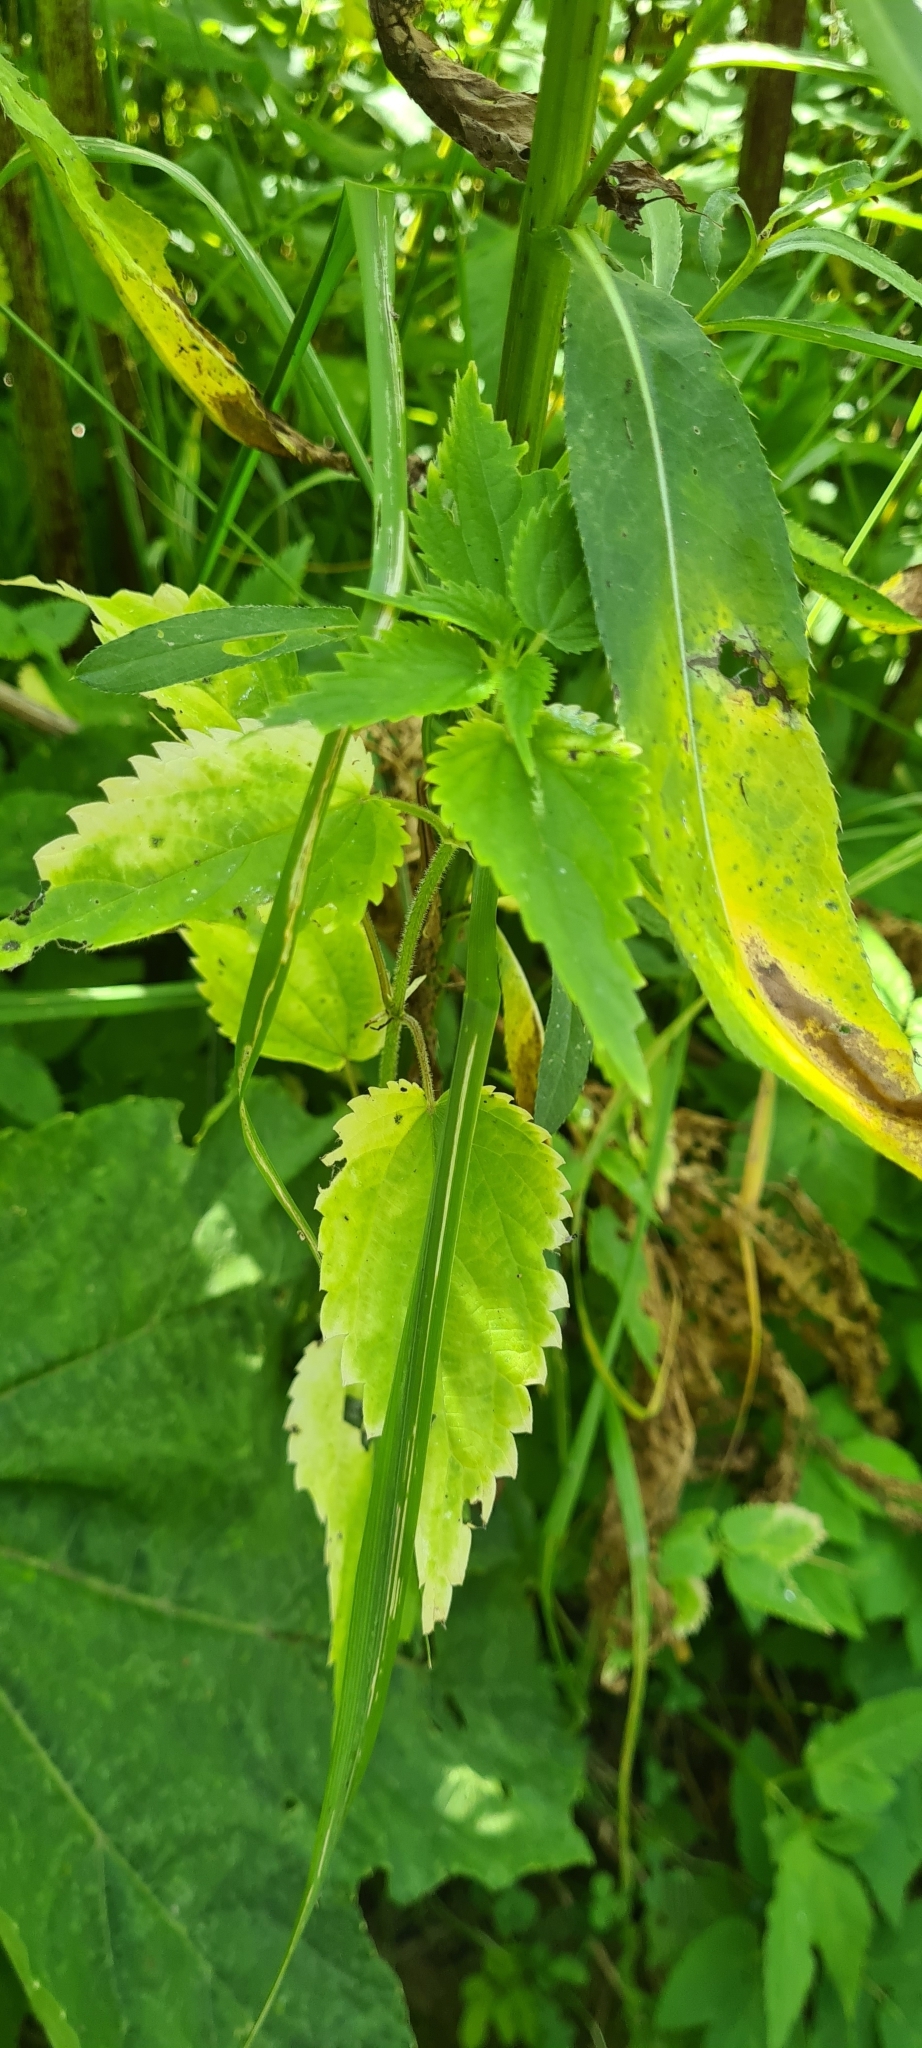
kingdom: Plantae
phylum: Tracheophyta
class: Magnoliopsida
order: Rosales
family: Urticaceae
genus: Urtica
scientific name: Urtica dioica
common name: Common nettle
